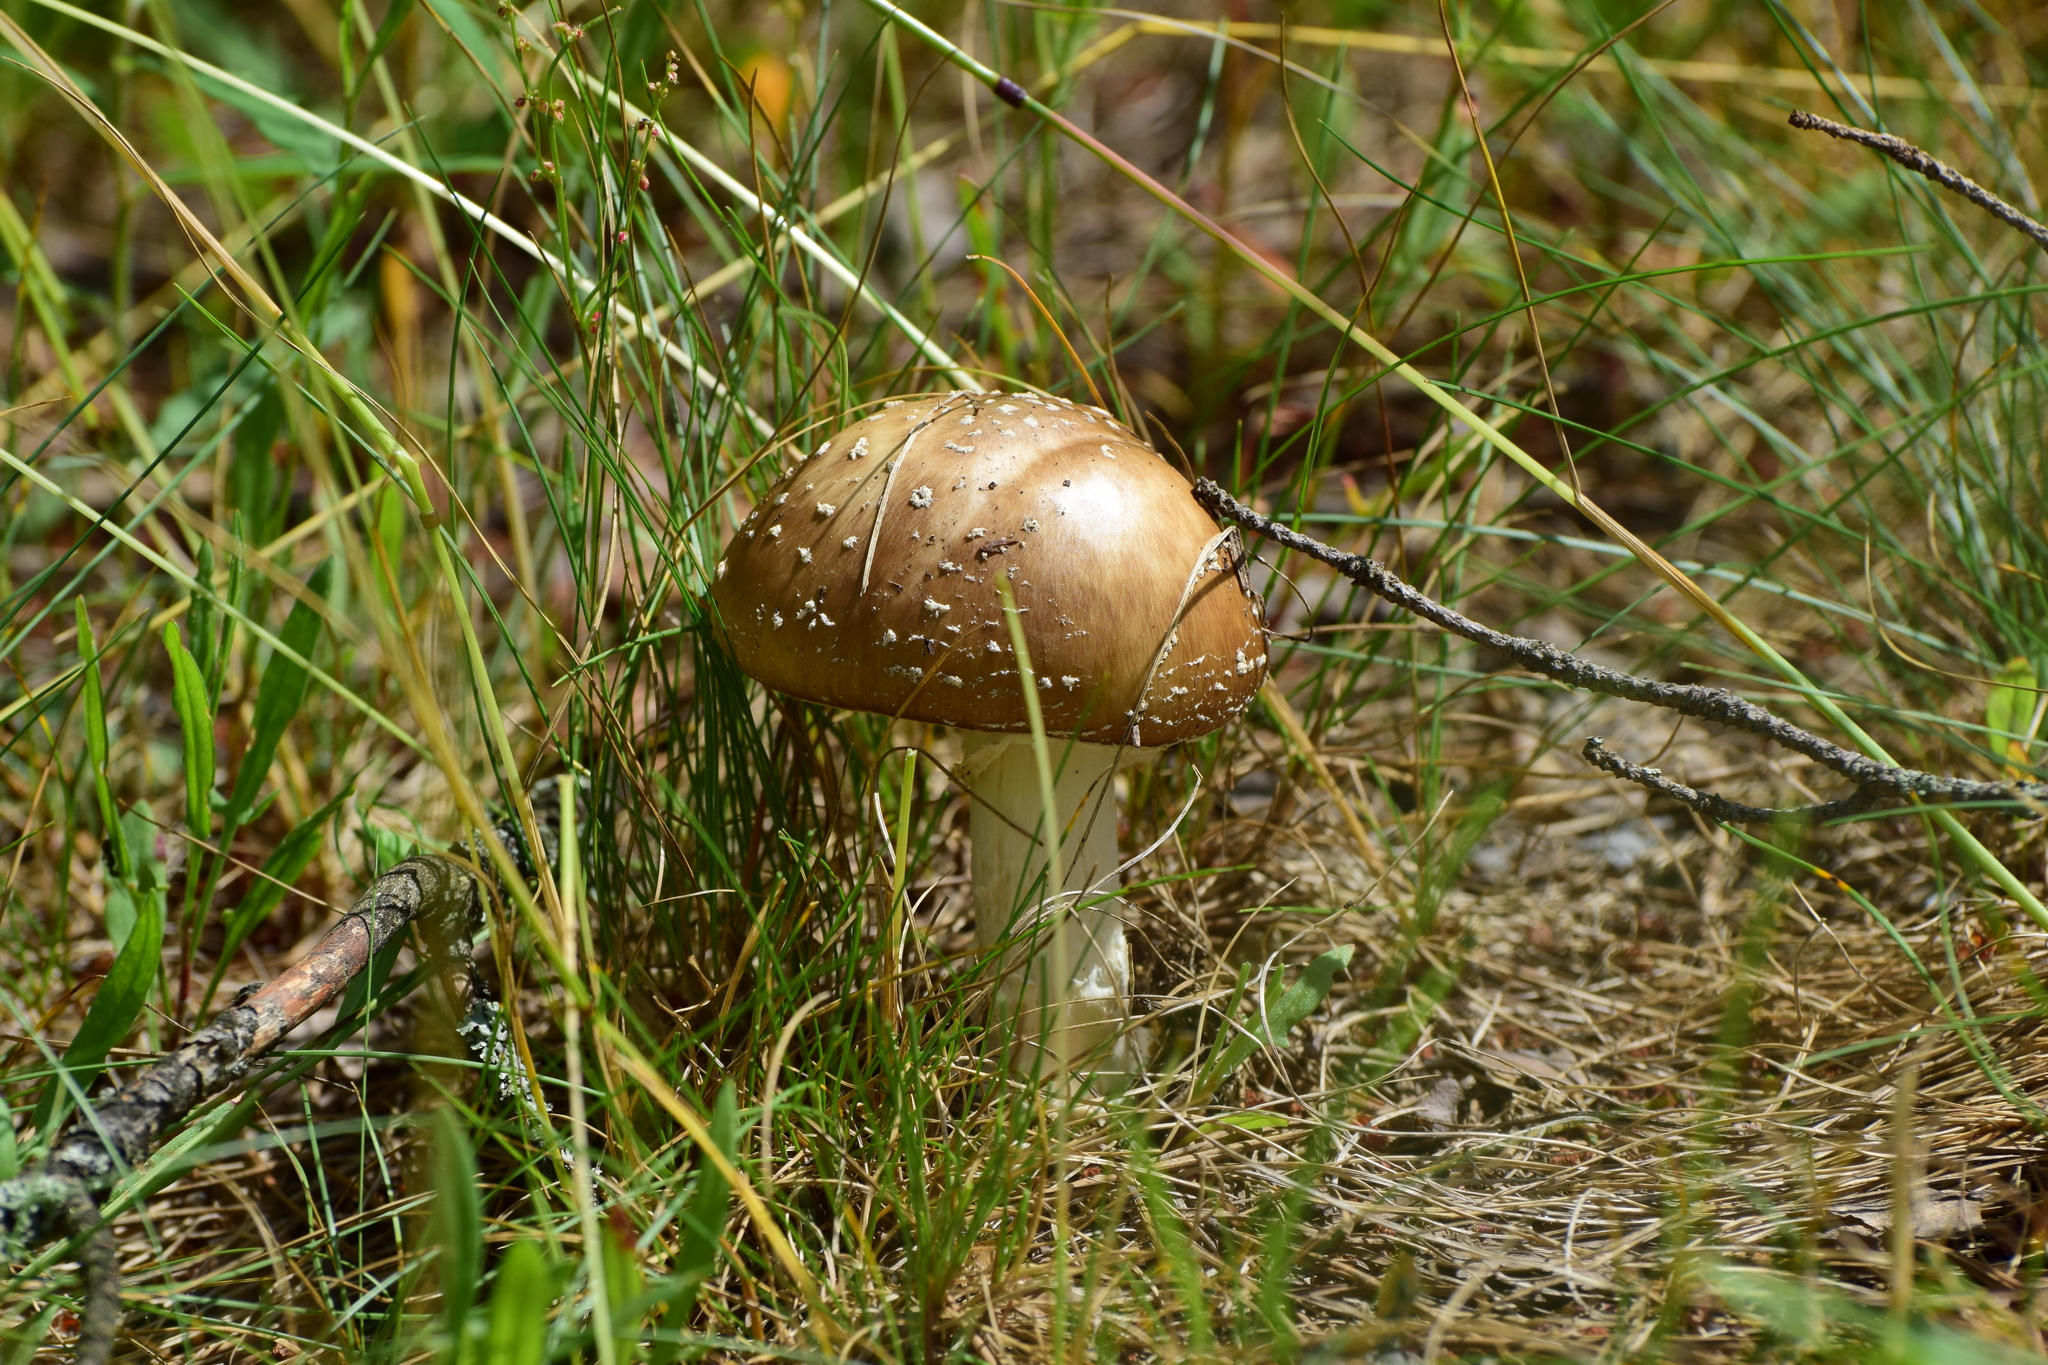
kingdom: Fungi
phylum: Basidiomycota
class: Agaricomycetes
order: Agaricales
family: Amanitaceae
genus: Amanita
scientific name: Amanita pantherina
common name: Panthercap
